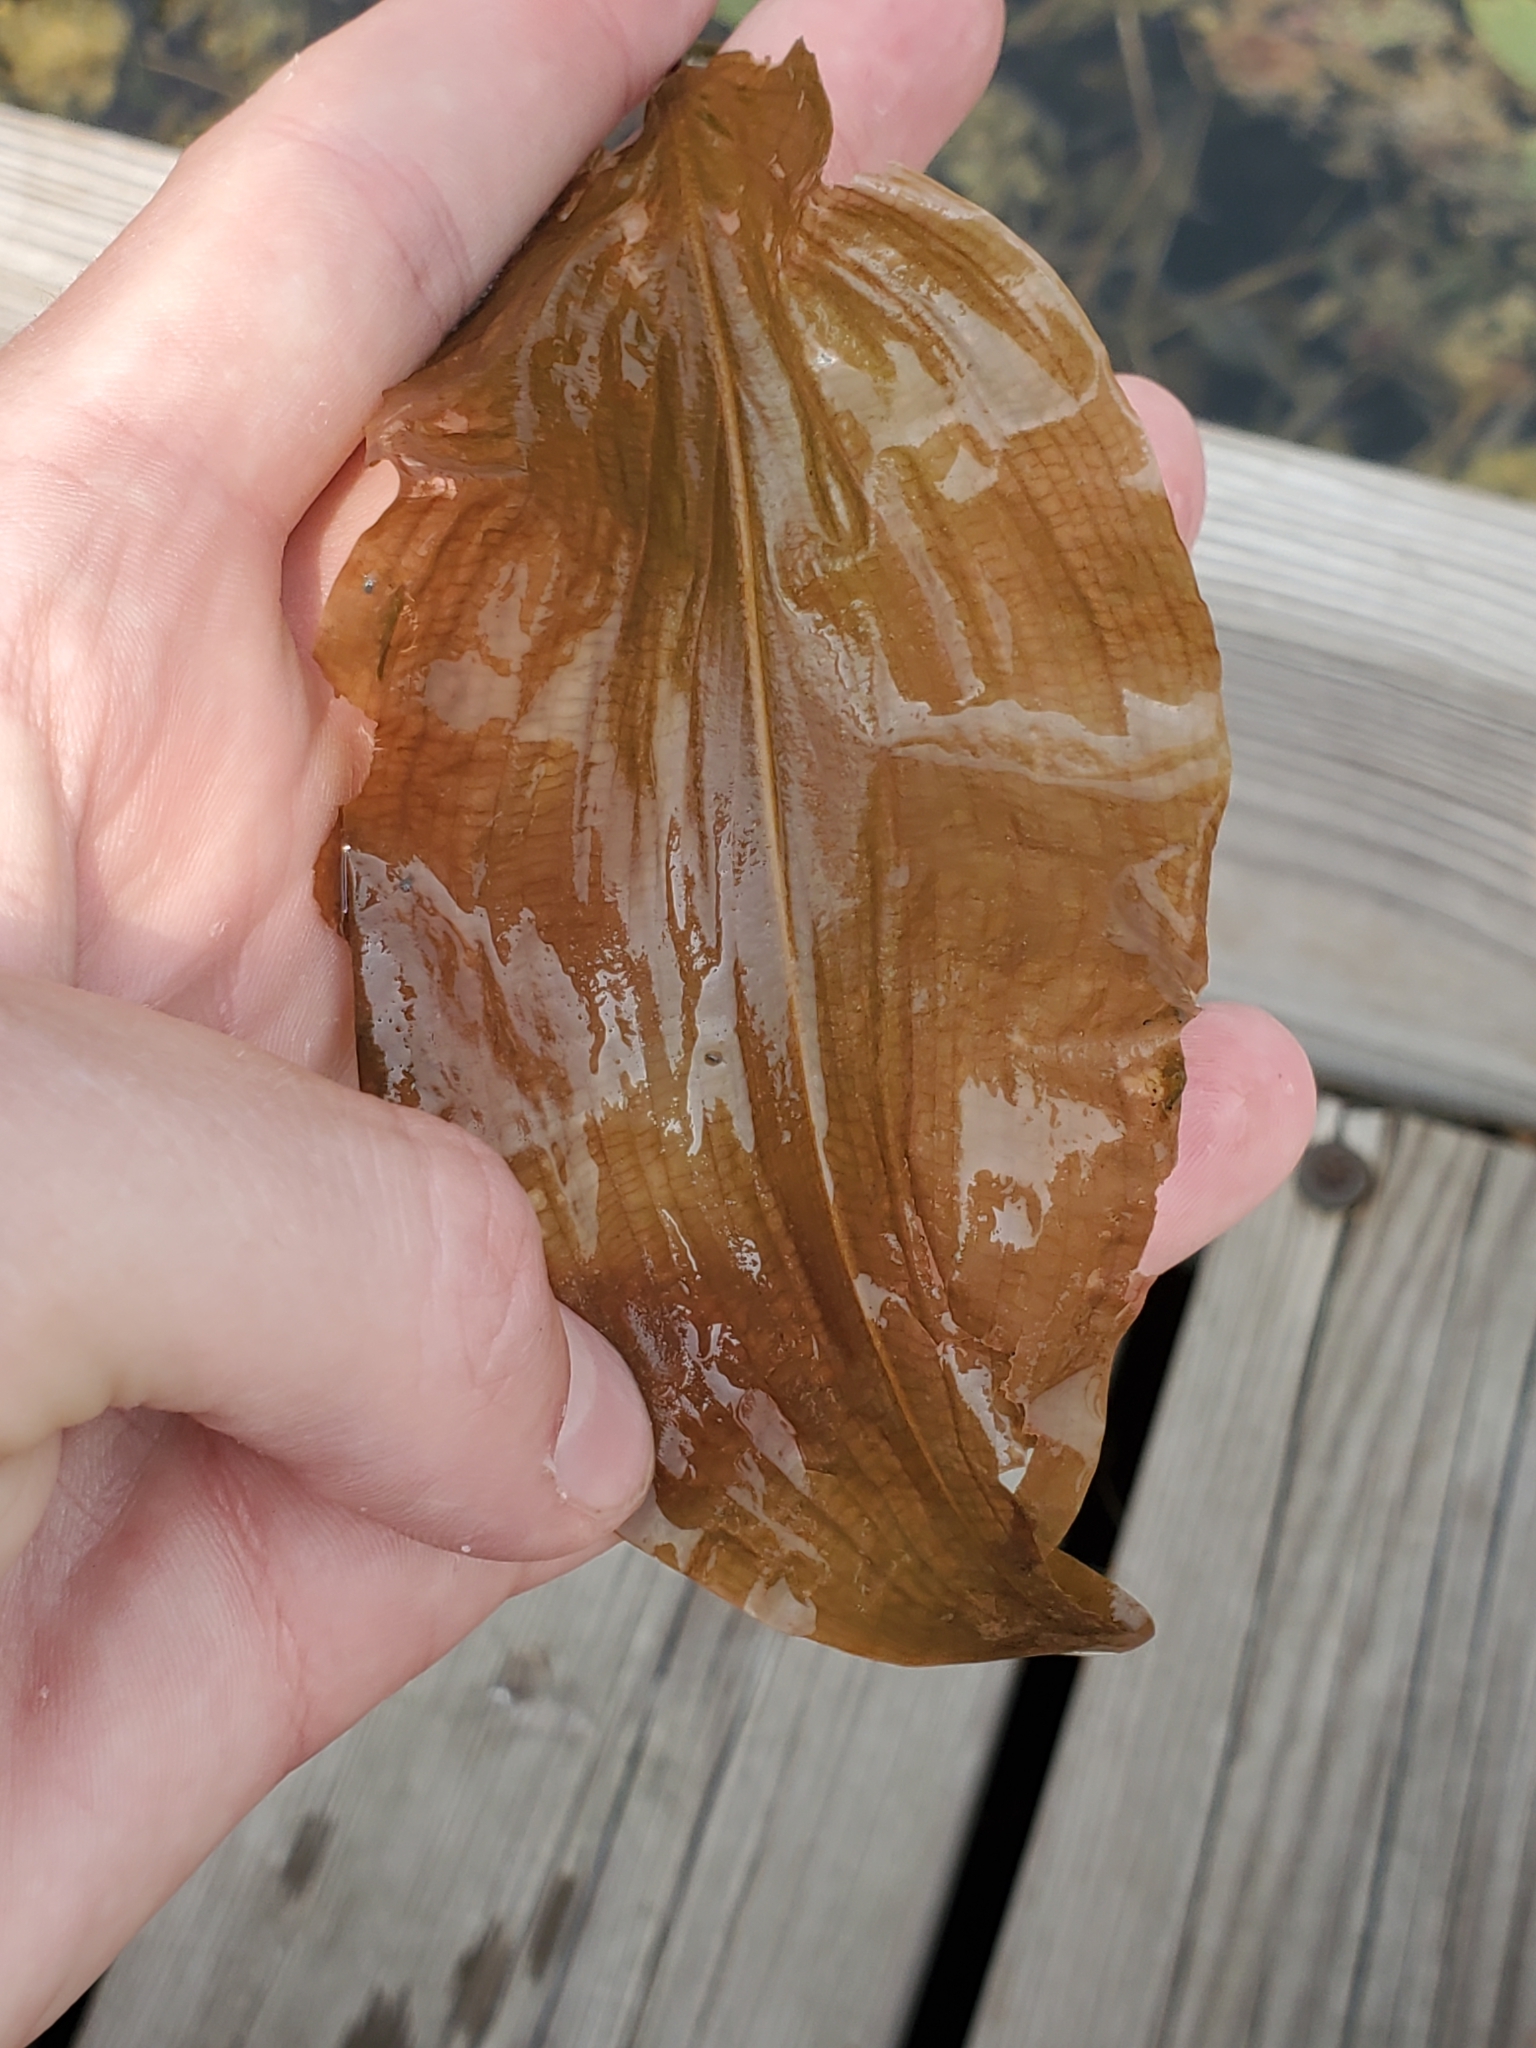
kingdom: Plantae
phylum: Tracheophyta
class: Liliopsida
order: Alismatales
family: Potamogetonaceae
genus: Potamogeton
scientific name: Potamogeton amplifolius
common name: Broad-leaved pondweed
